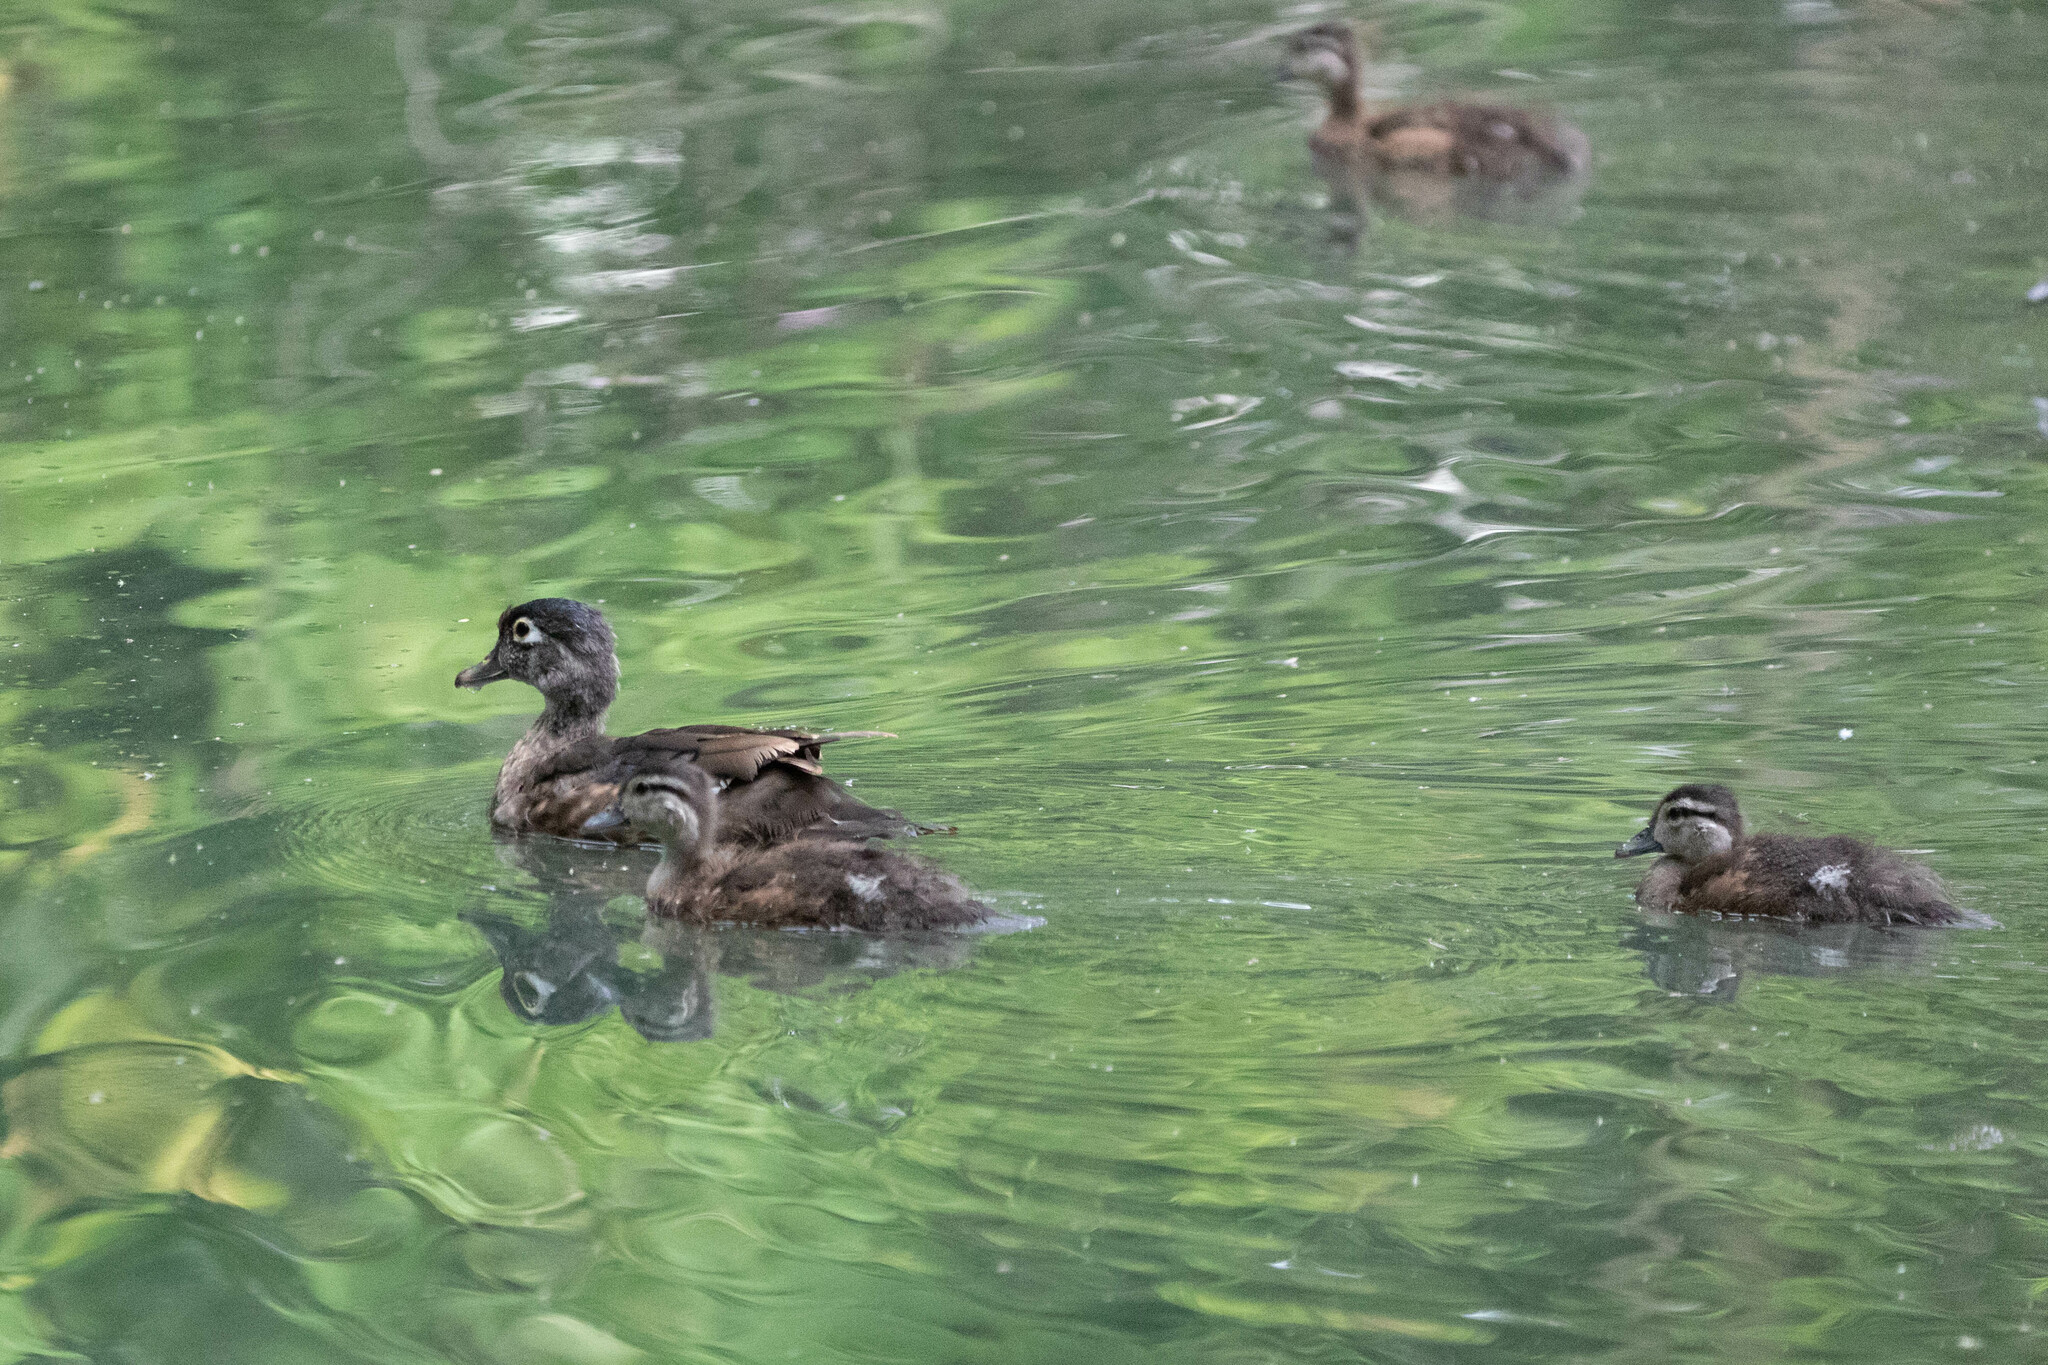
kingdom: Animalia
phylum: Chordata
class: Aves
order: Anseriformes
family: Anatidae
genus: Aix
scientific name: Aix sponsa
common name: Wood duck
